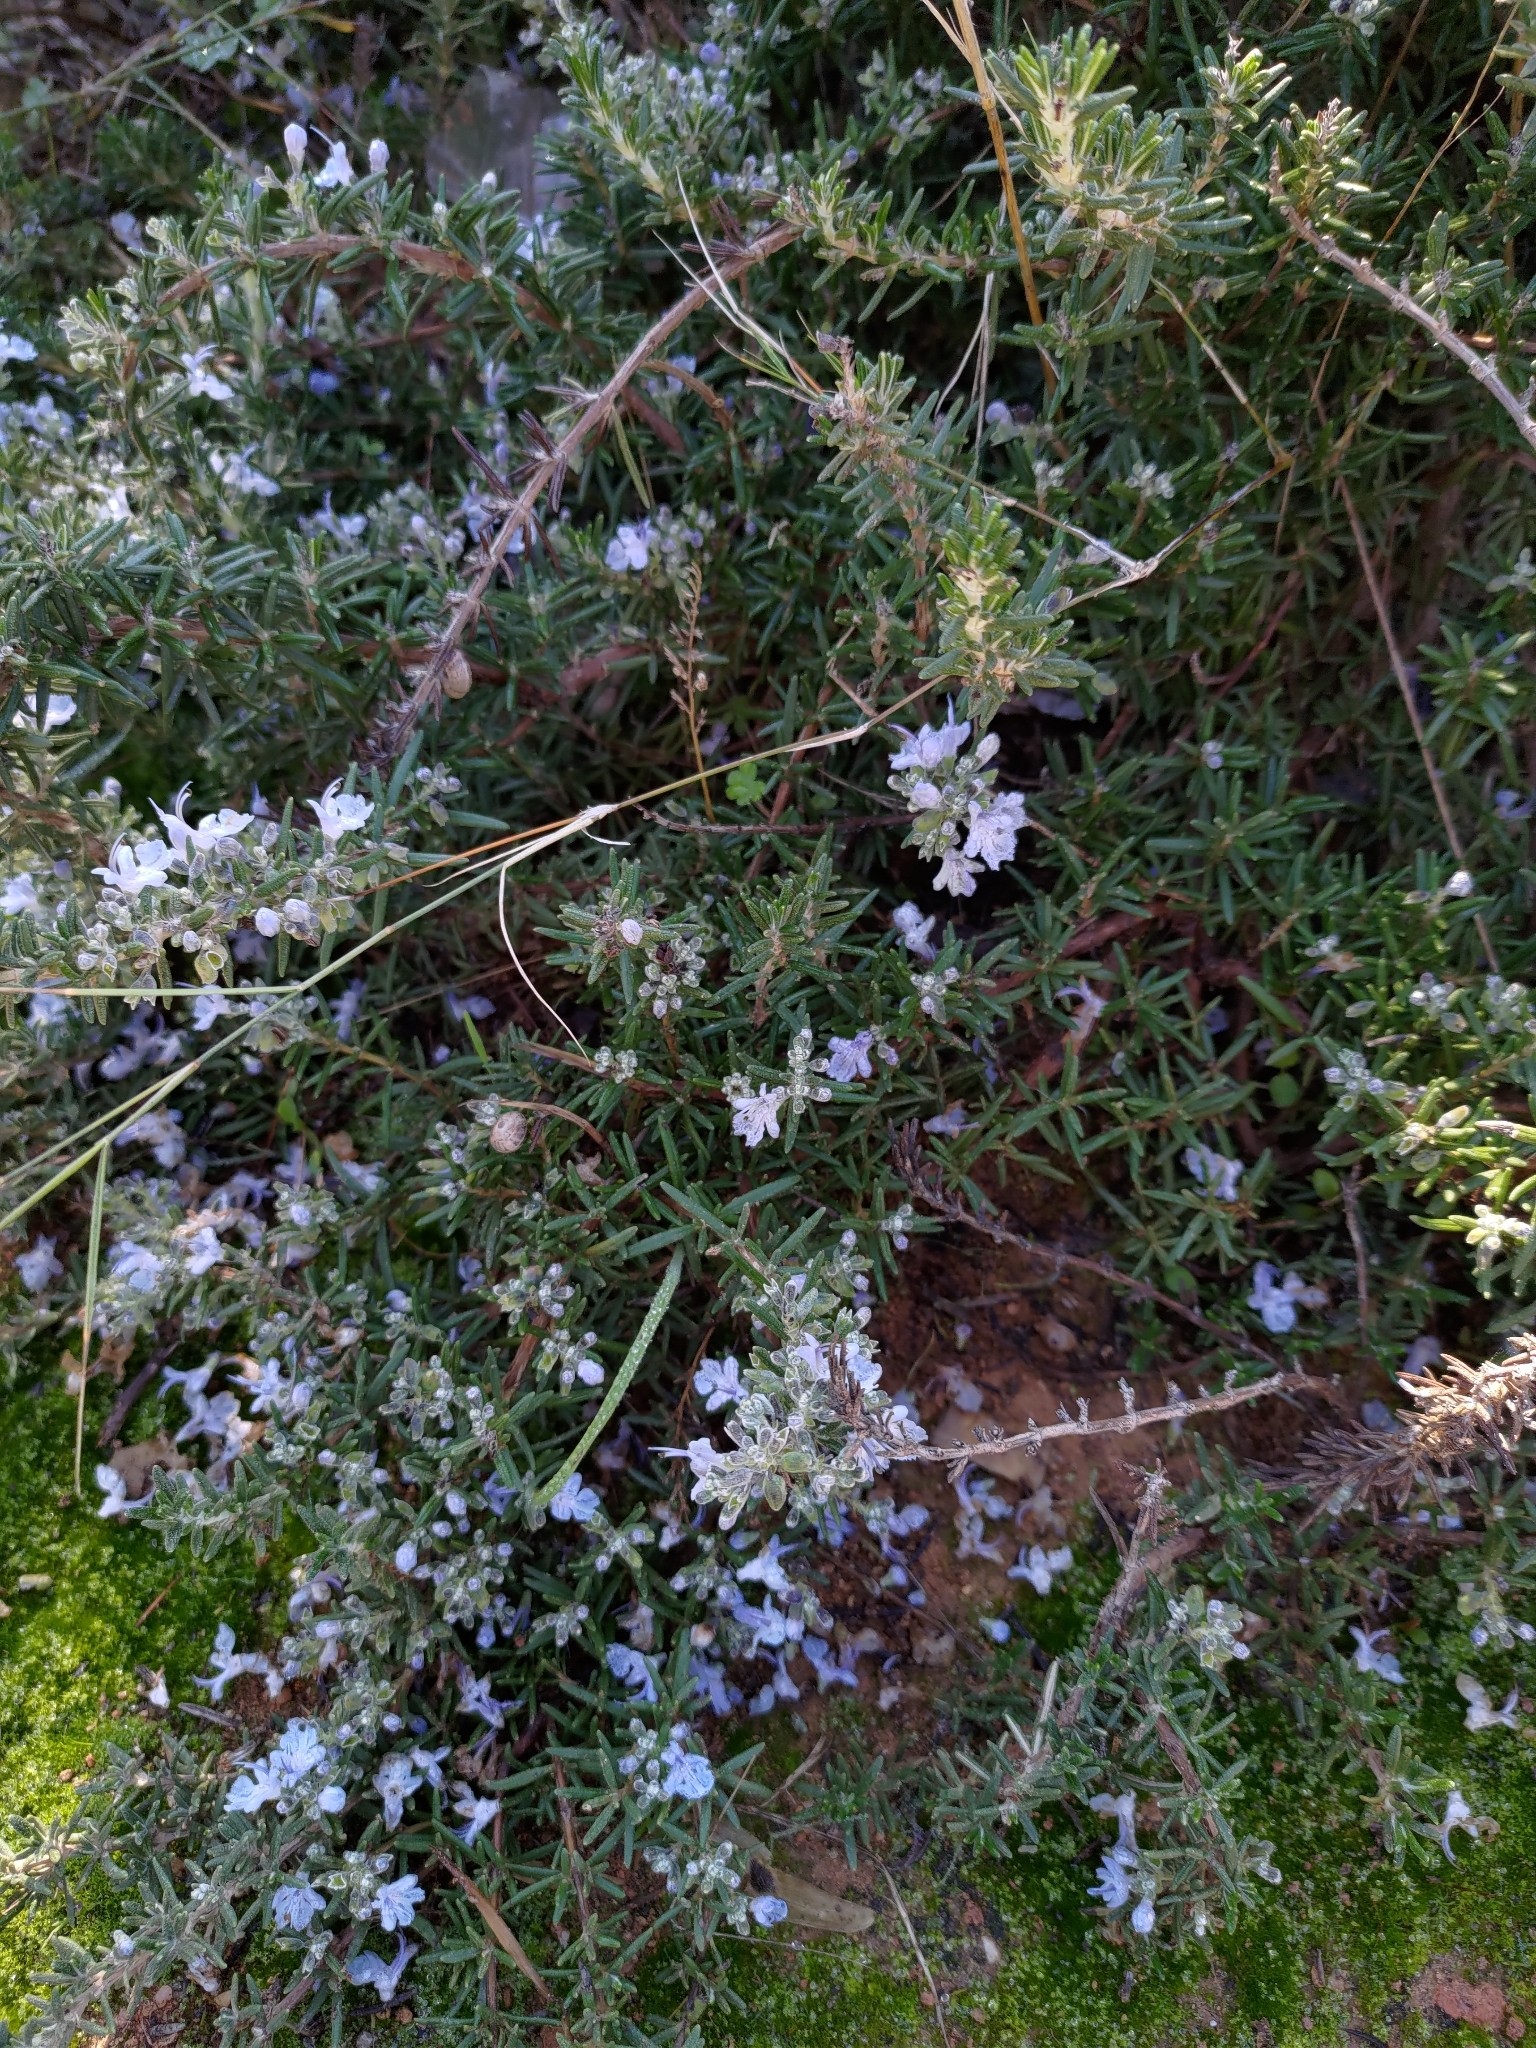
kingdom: Plantae
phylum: Tracheophyta
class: Magnoliopsida
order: Lamiales
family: Lamiaceae
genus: Salvia
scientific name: Salvia rosmarinus
